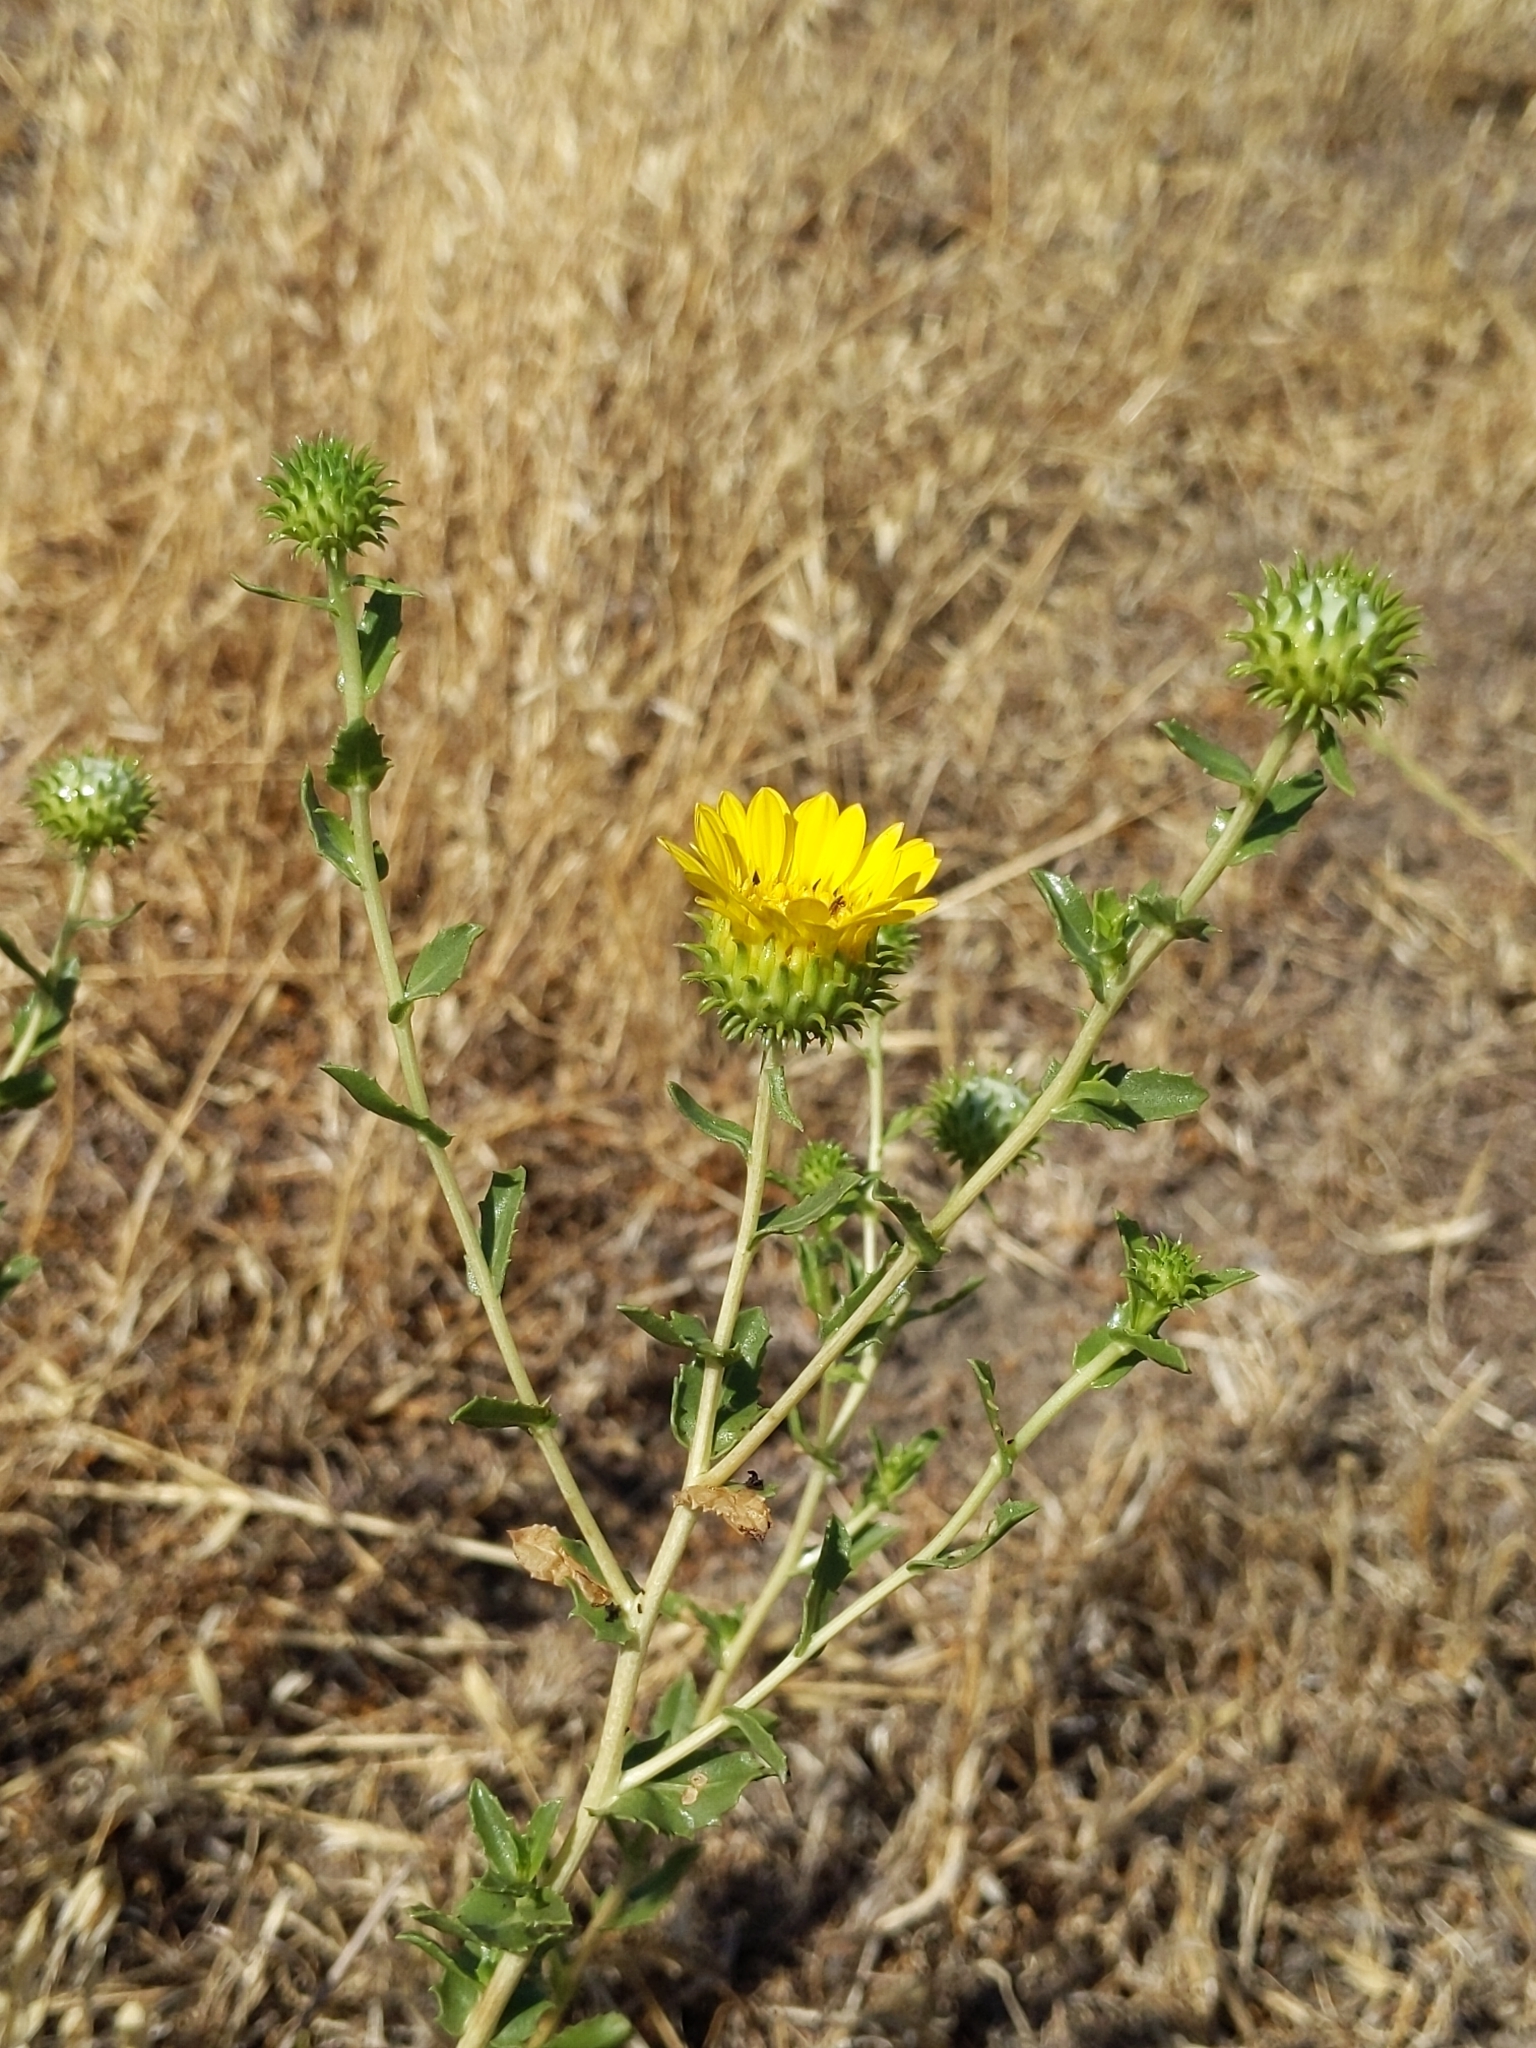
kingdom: Plantae
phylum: Tracheophyta
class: Magnoliopsida
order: Asterales
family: Asteraceae
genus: Grindelia
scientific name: Grindelia hirsutula
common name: Hairy gumweed
